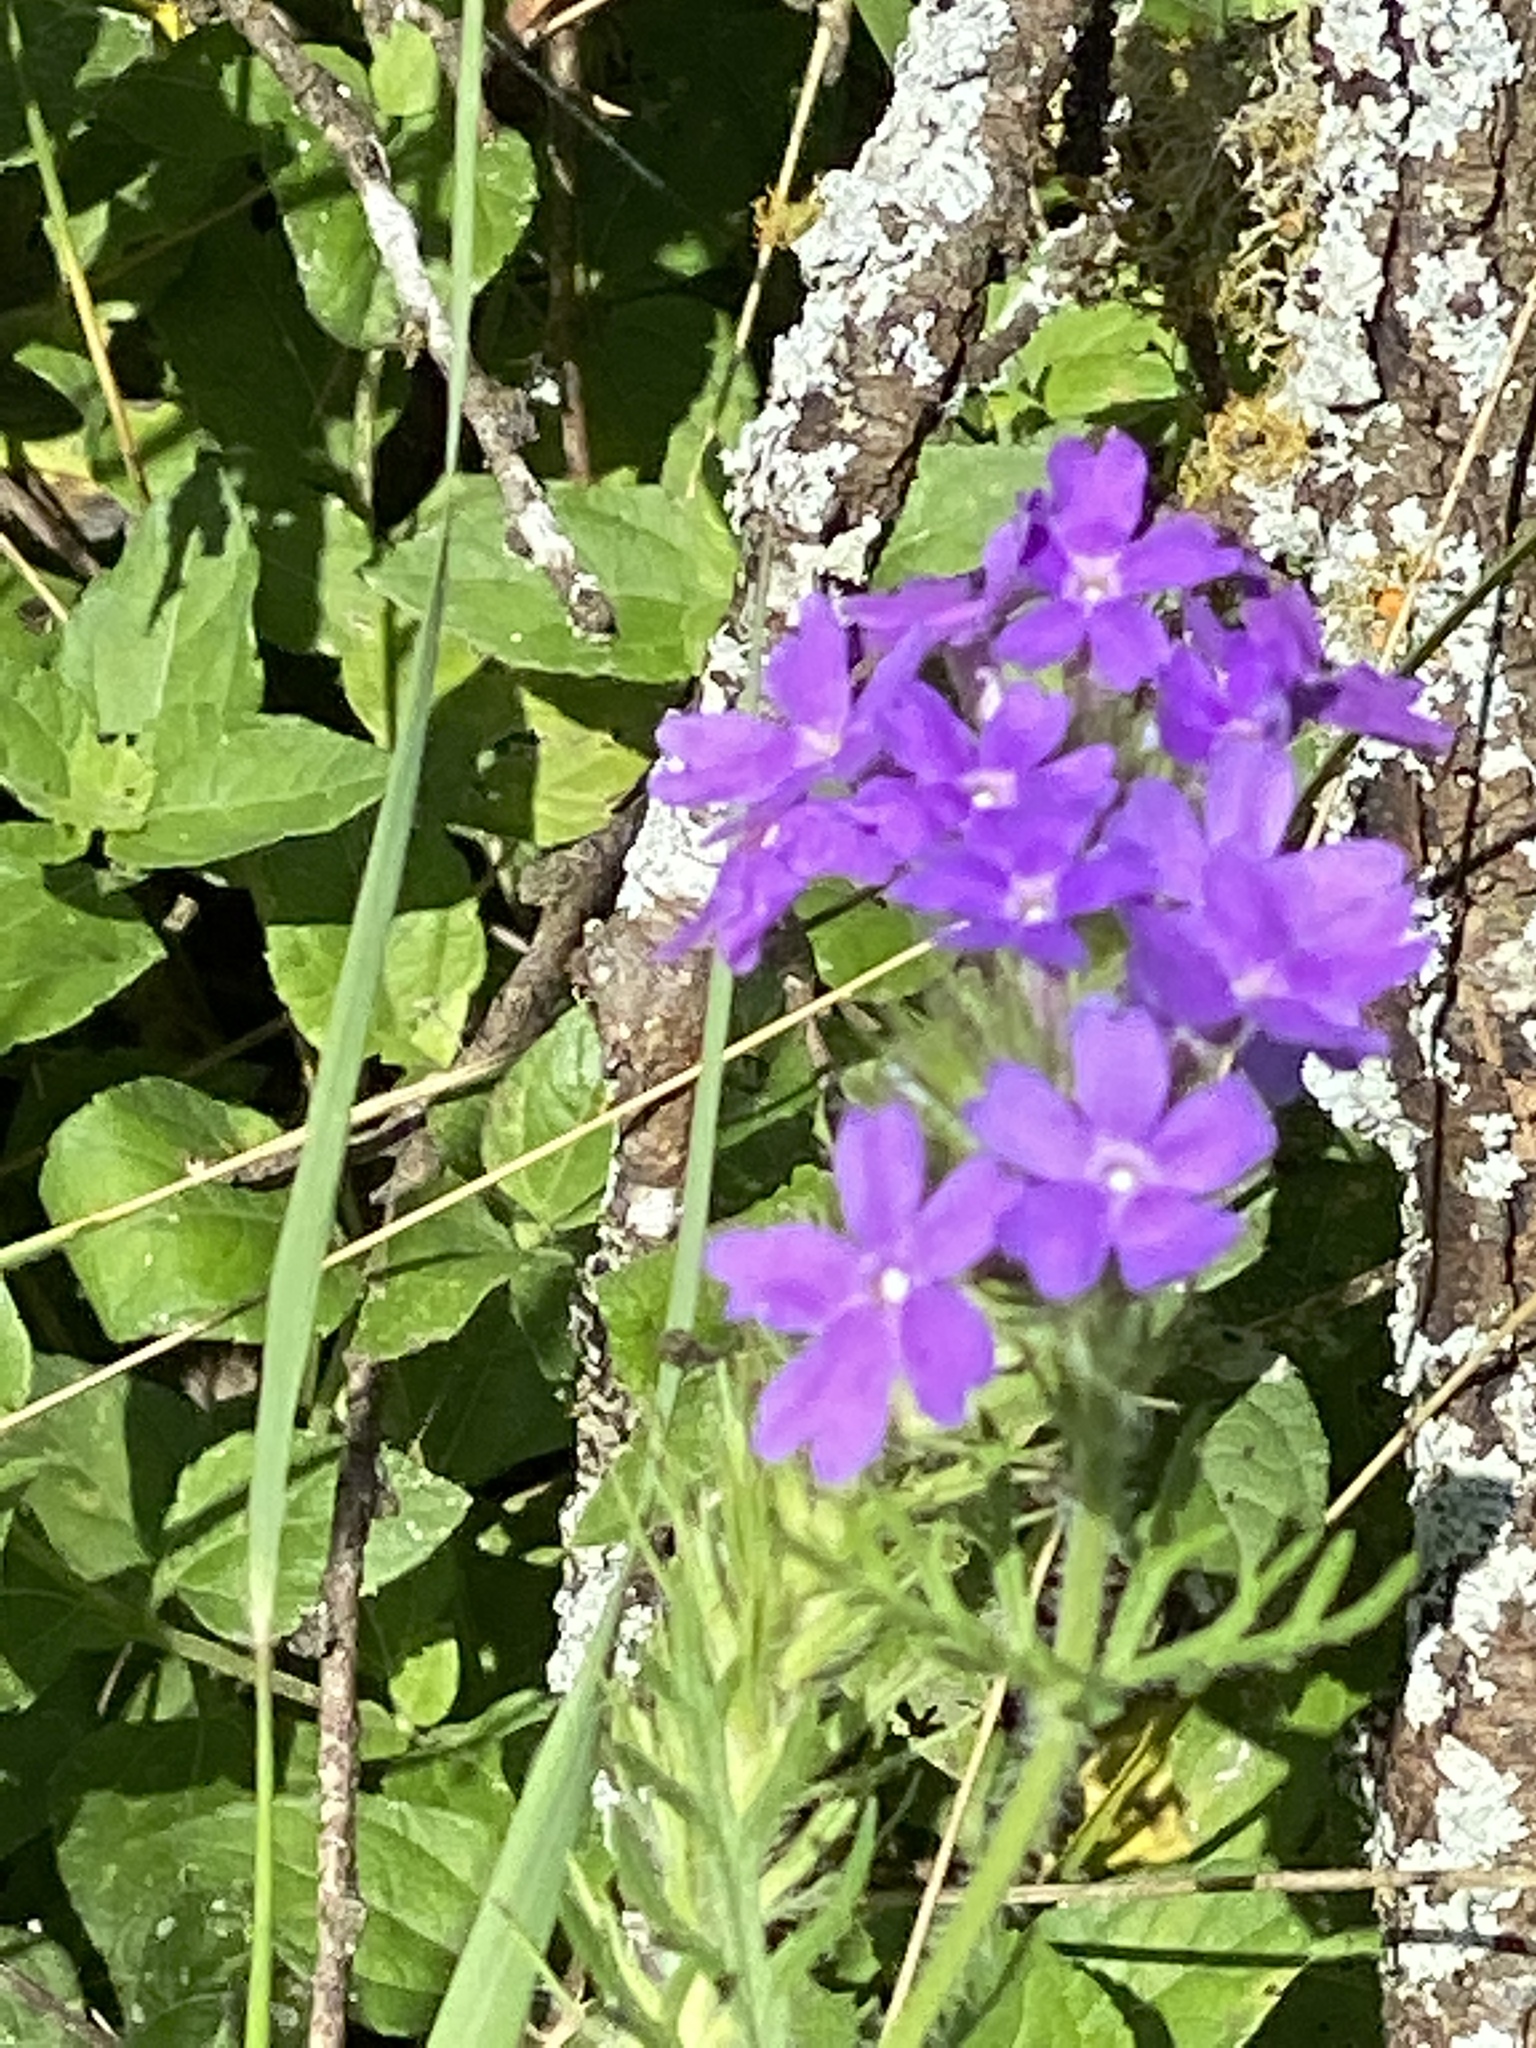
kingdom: Plantae
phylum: Tracheophyta
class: Magnoliopsida
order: Lamiales
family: Verbenaceae
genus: Verbena
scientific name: Verbena bipinnatifida
